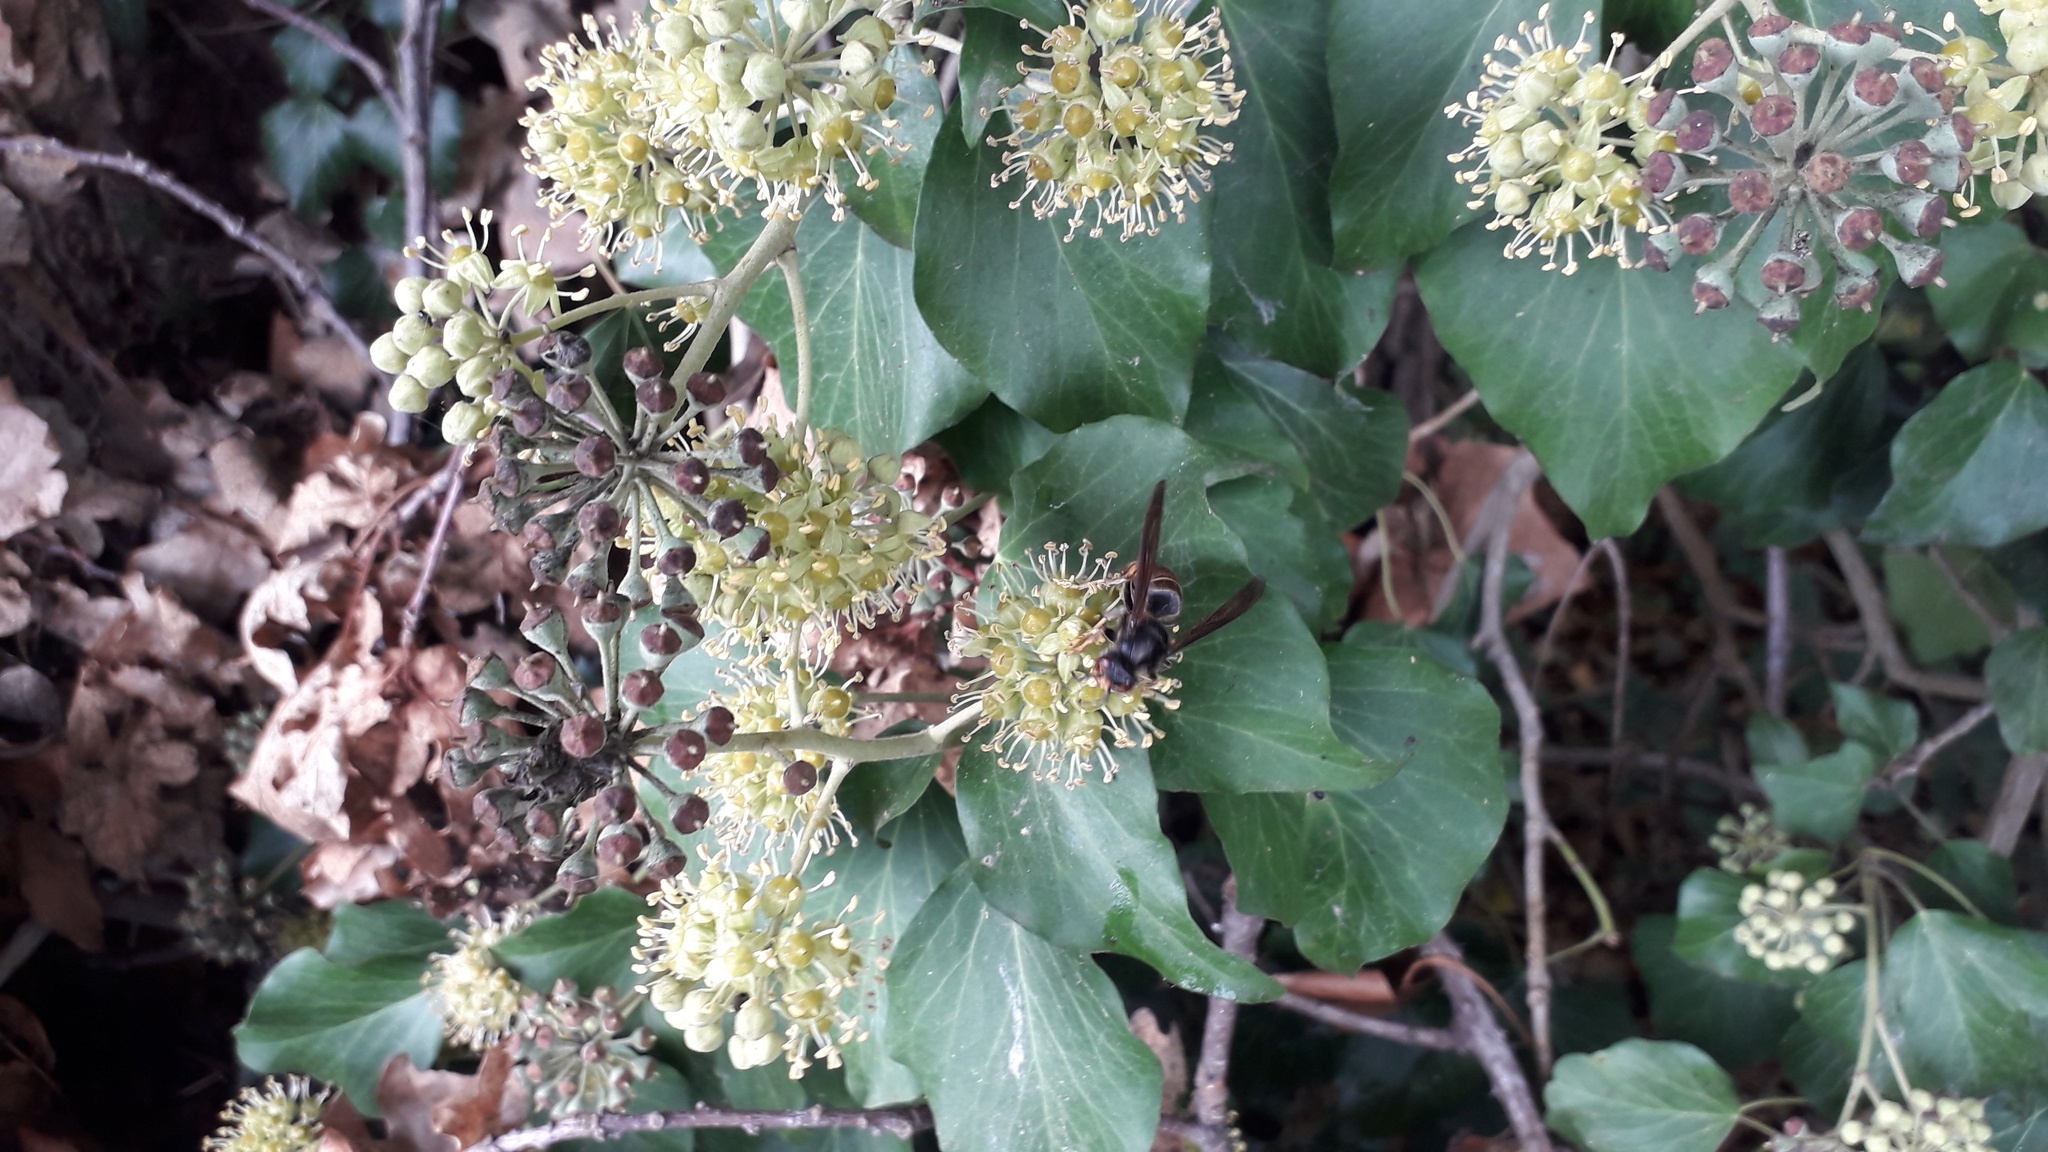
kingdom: Animalia
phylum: Arthropoda
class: Insecta
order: Hymenoptera
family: Vespidae
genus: Vespa
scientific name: Vespa velutina
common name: Asian hornet
